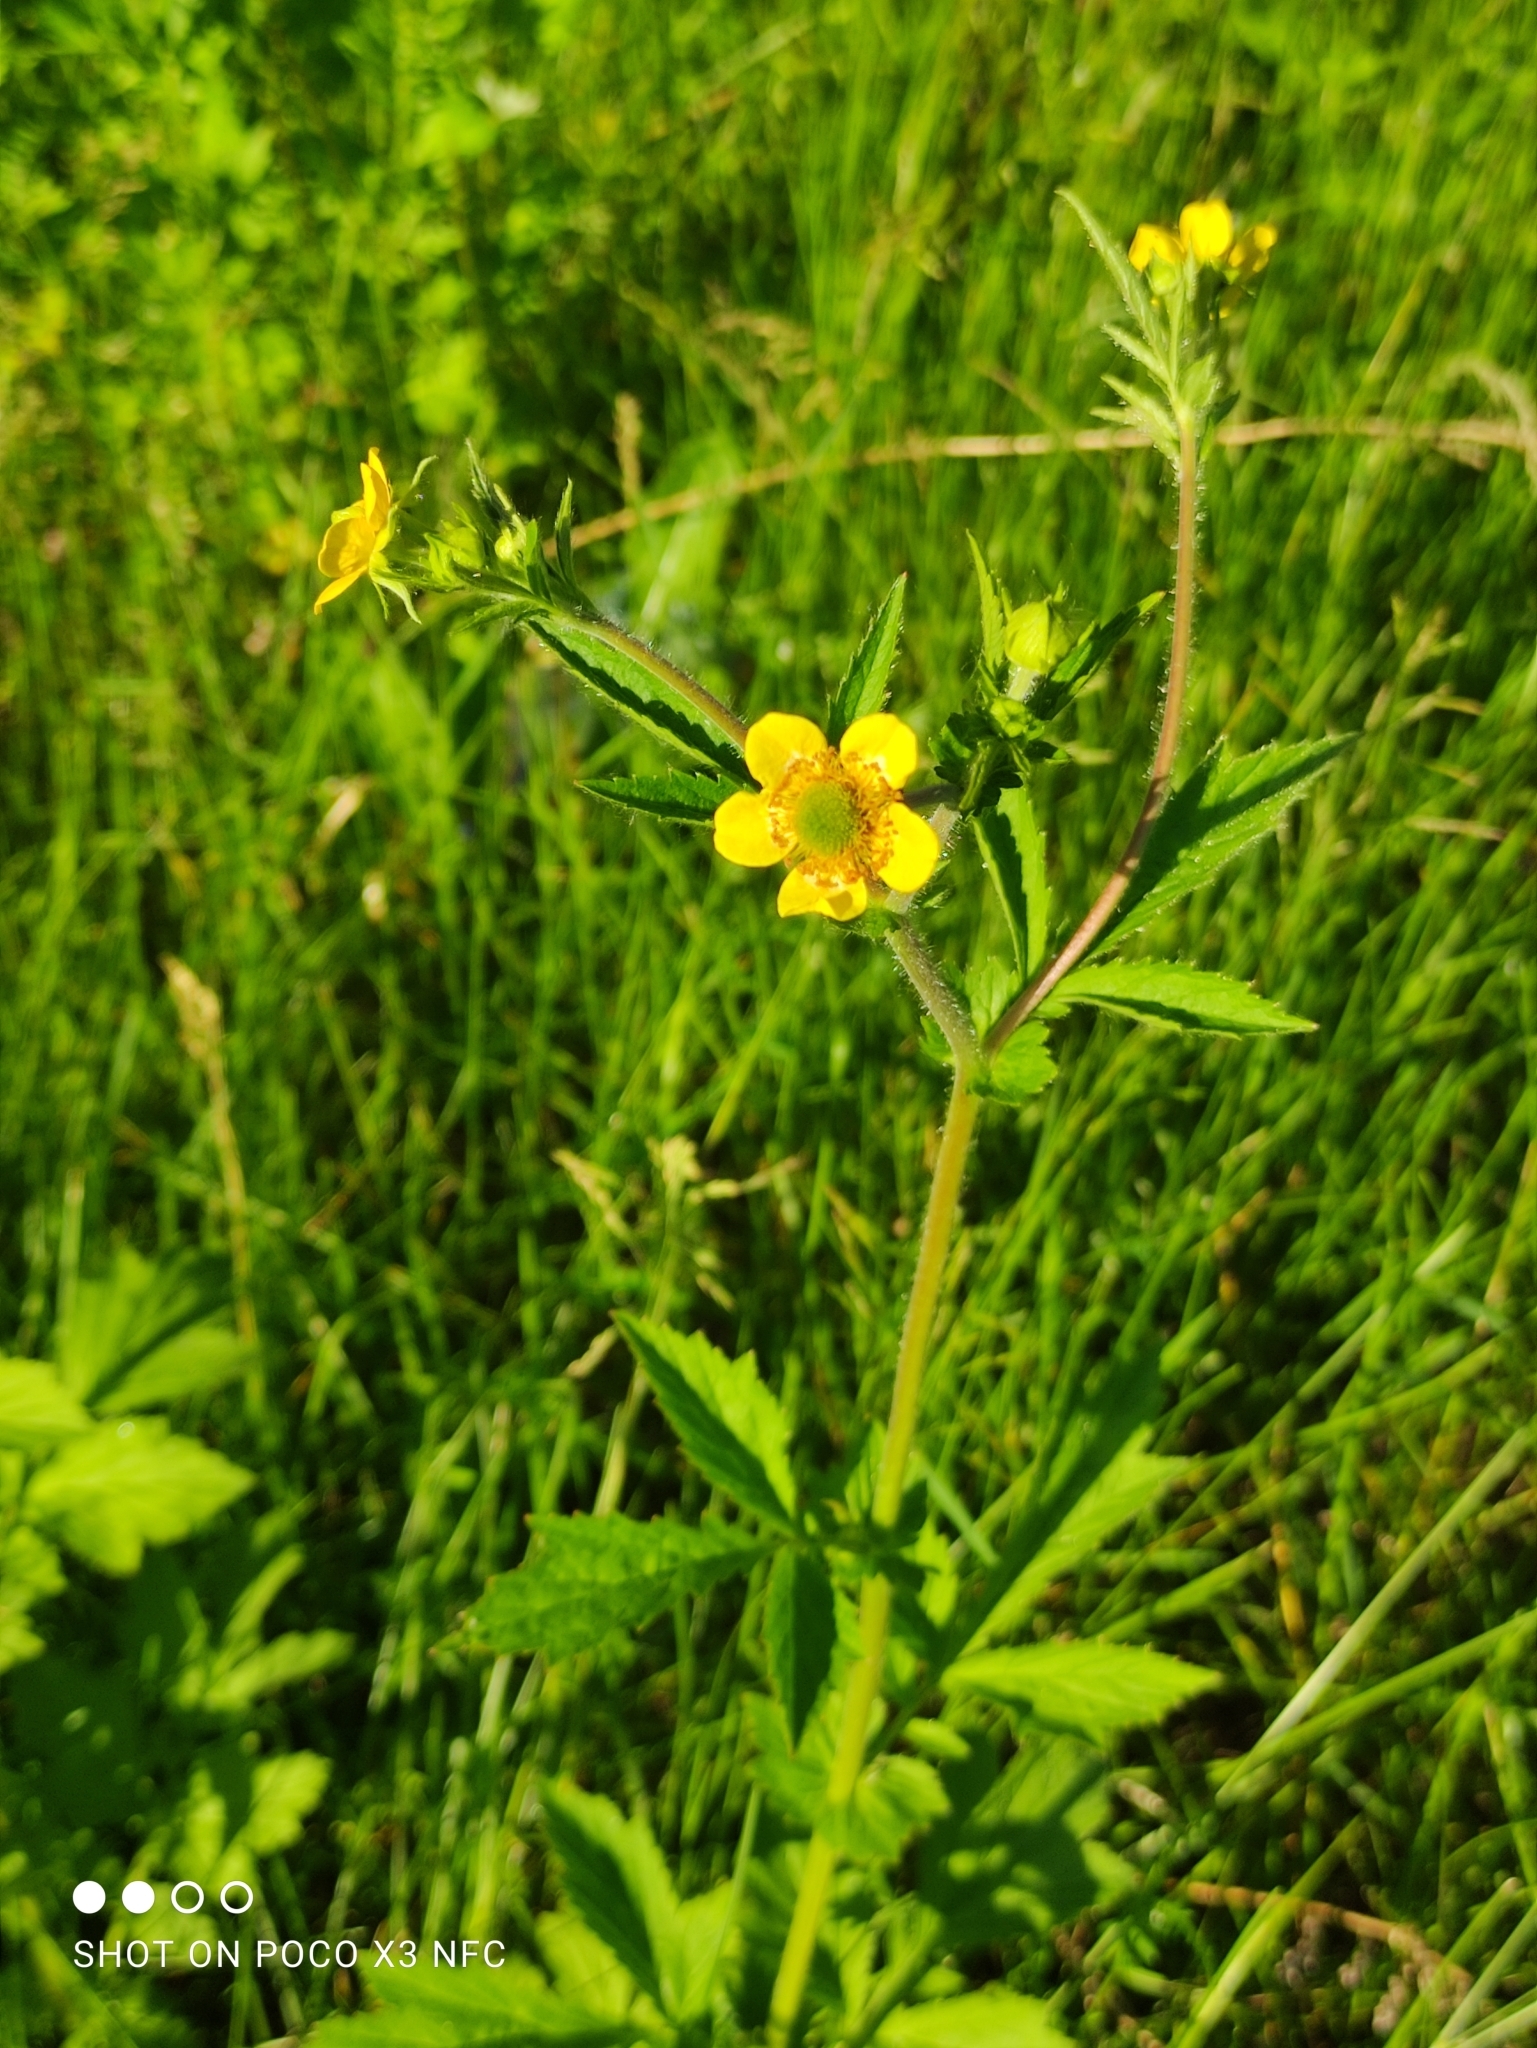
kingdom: Plantae
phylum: Tracheophyta
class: Magnoliopsida
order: Rosales
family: Rosaceae
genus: Geum
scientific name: Geum aleppicum
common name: Yellow avens
